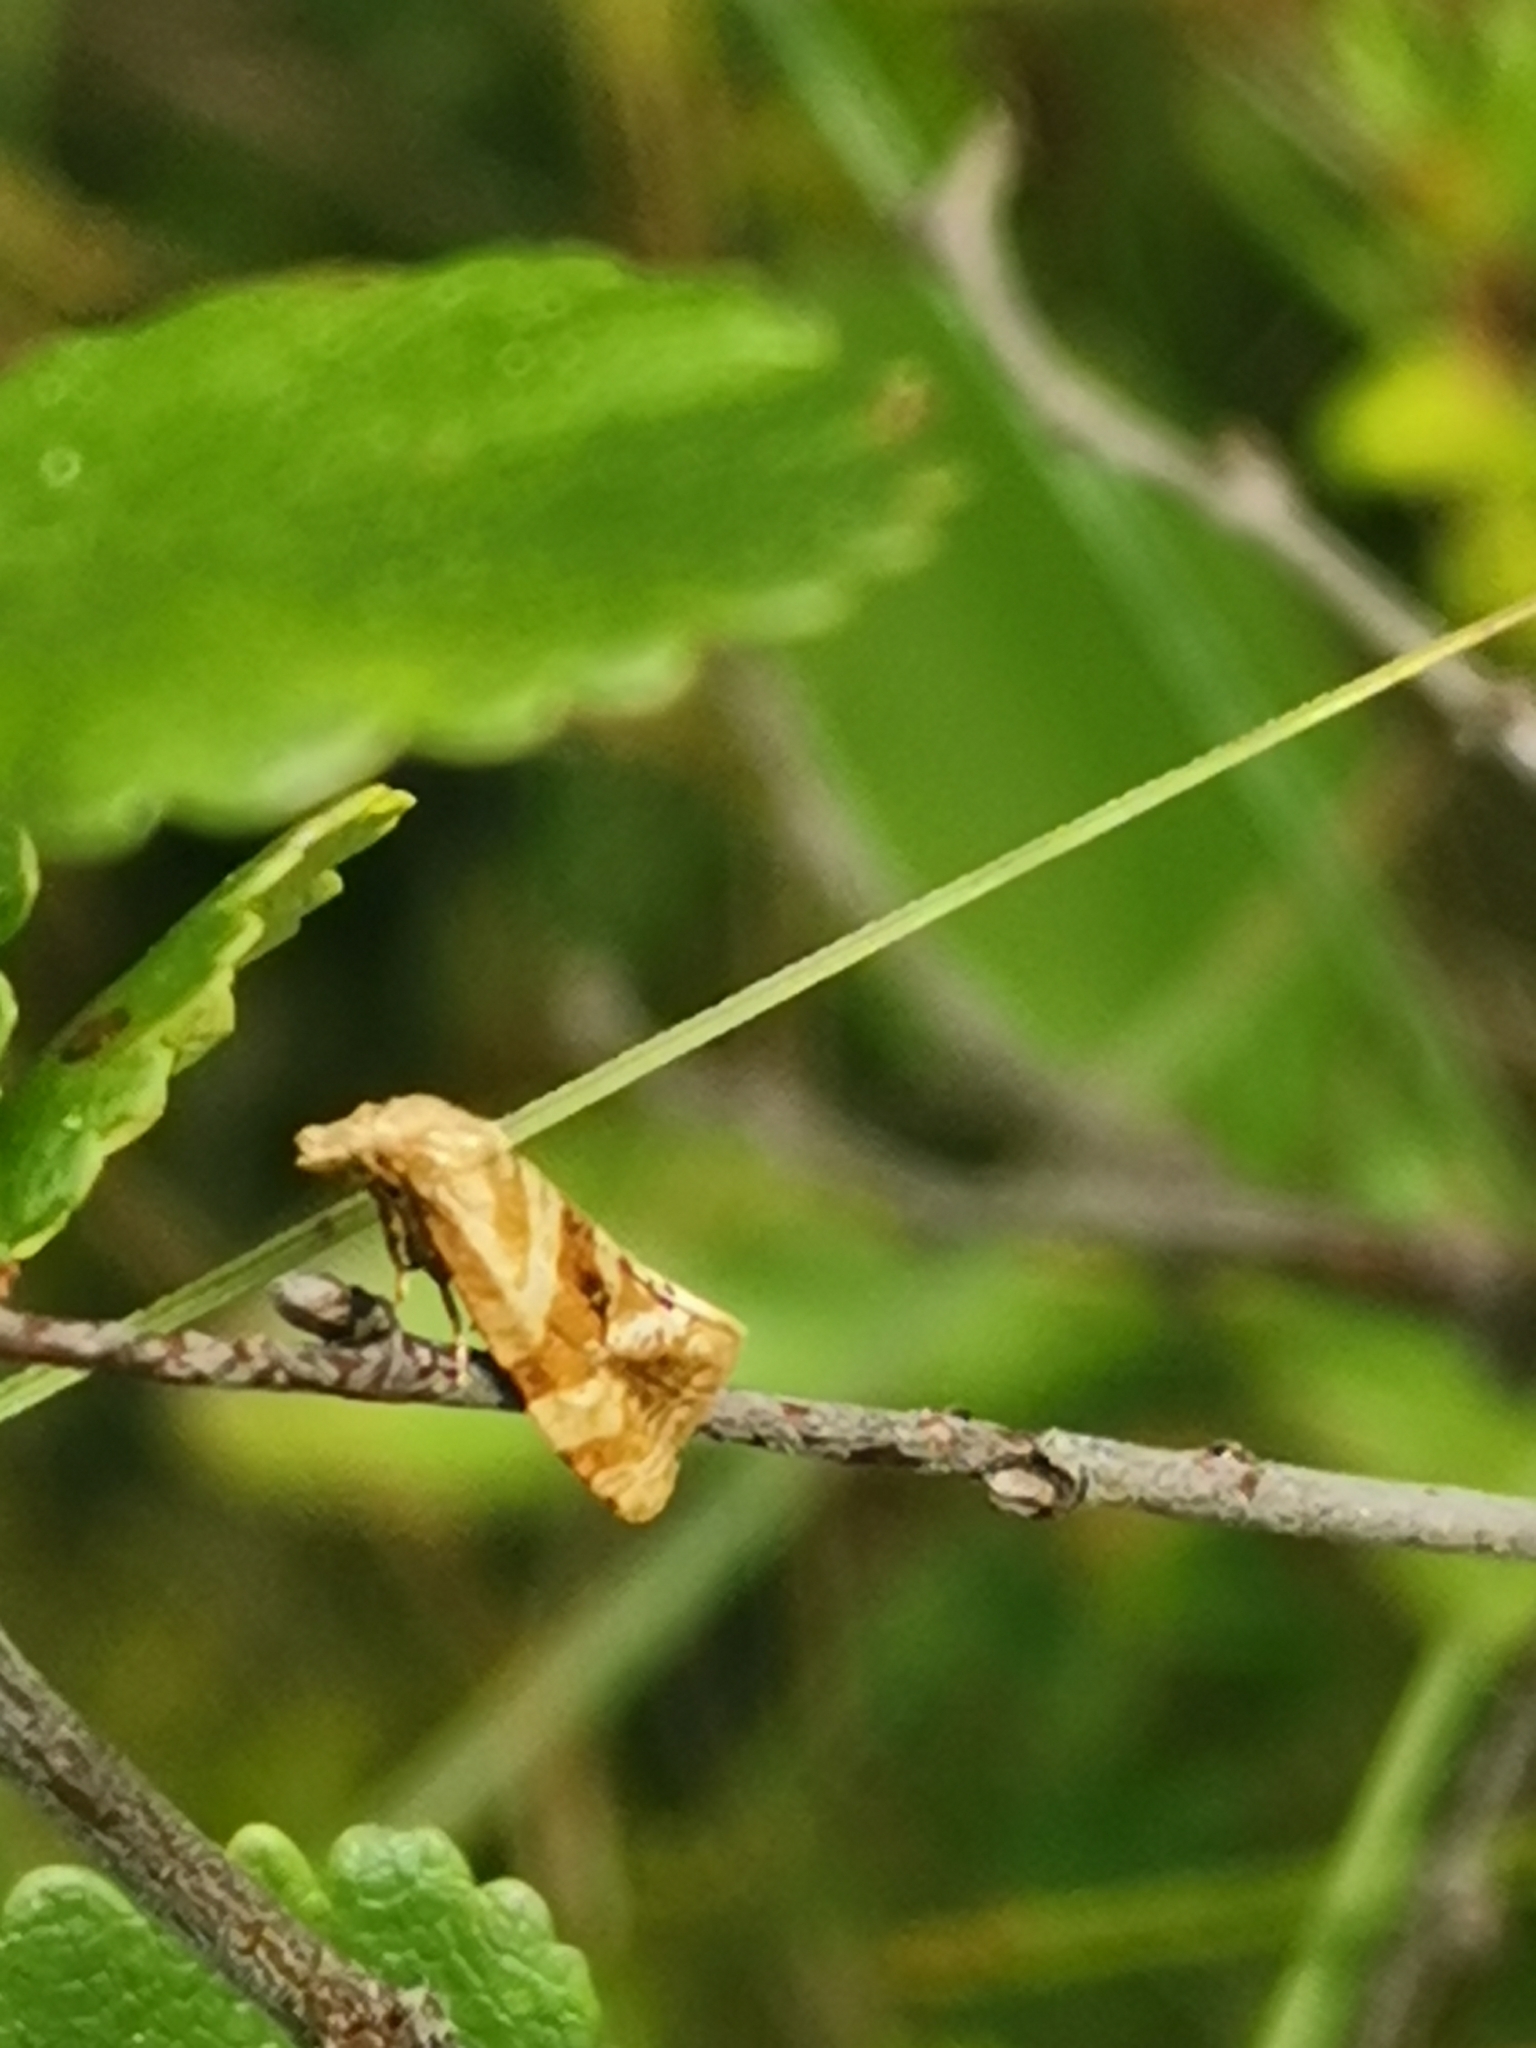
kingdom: Animalia
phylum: Arthropoda
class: Insecta
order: Lepidoptera
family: Tortricidae
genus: Gynnidomorpha
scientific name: Gynnidomorpha permixtana
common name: Coast conch
